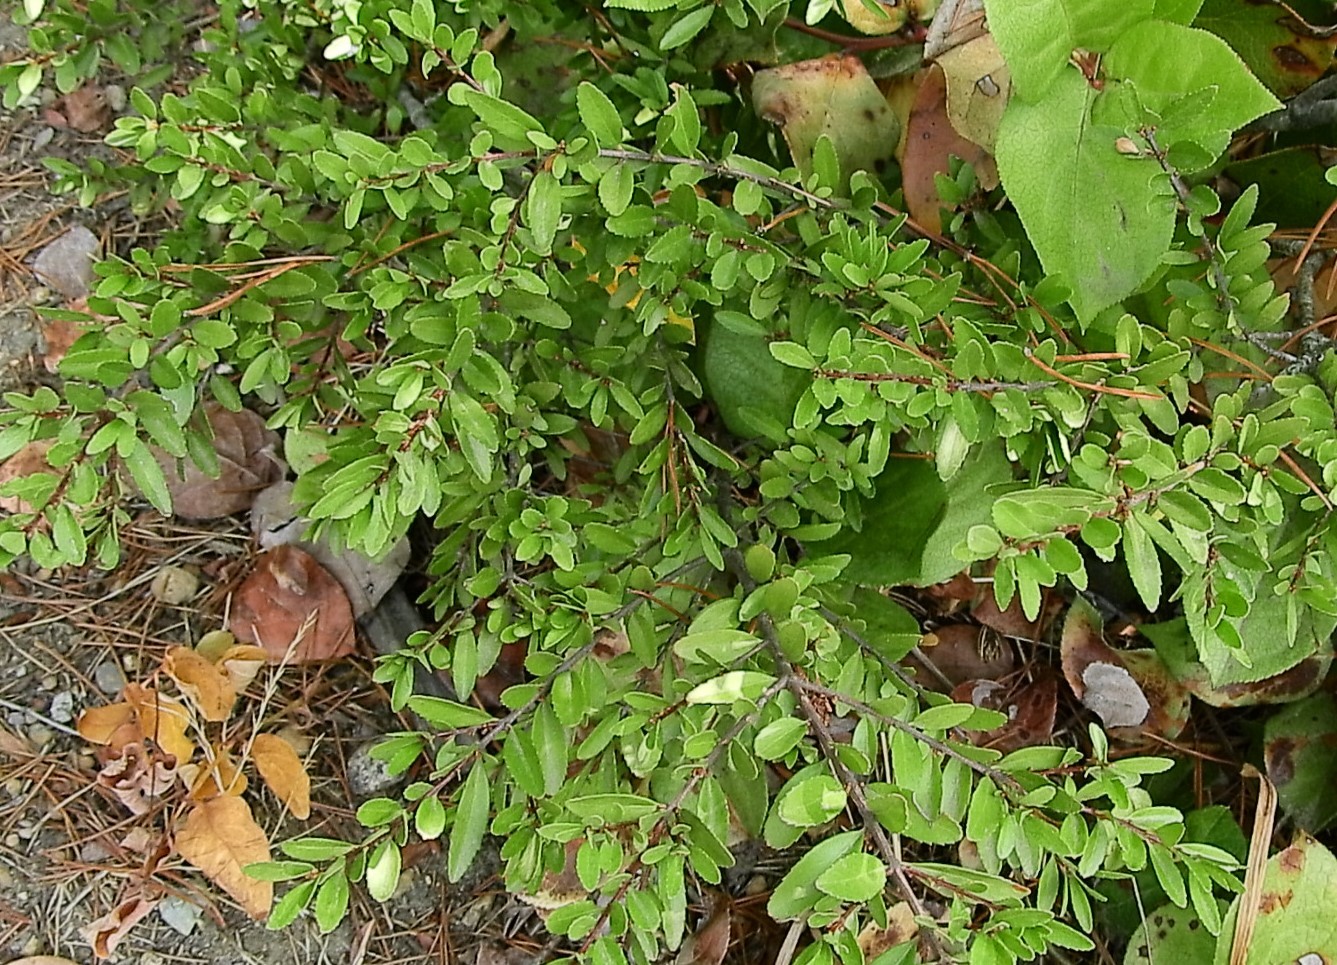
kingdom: Plantae
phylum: Tracheophyta
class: Magnoliopsida
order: Celastrales
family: Celastraceae
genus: Paxistima
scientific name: Paxistima myrsinites
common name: Mountain-lover
